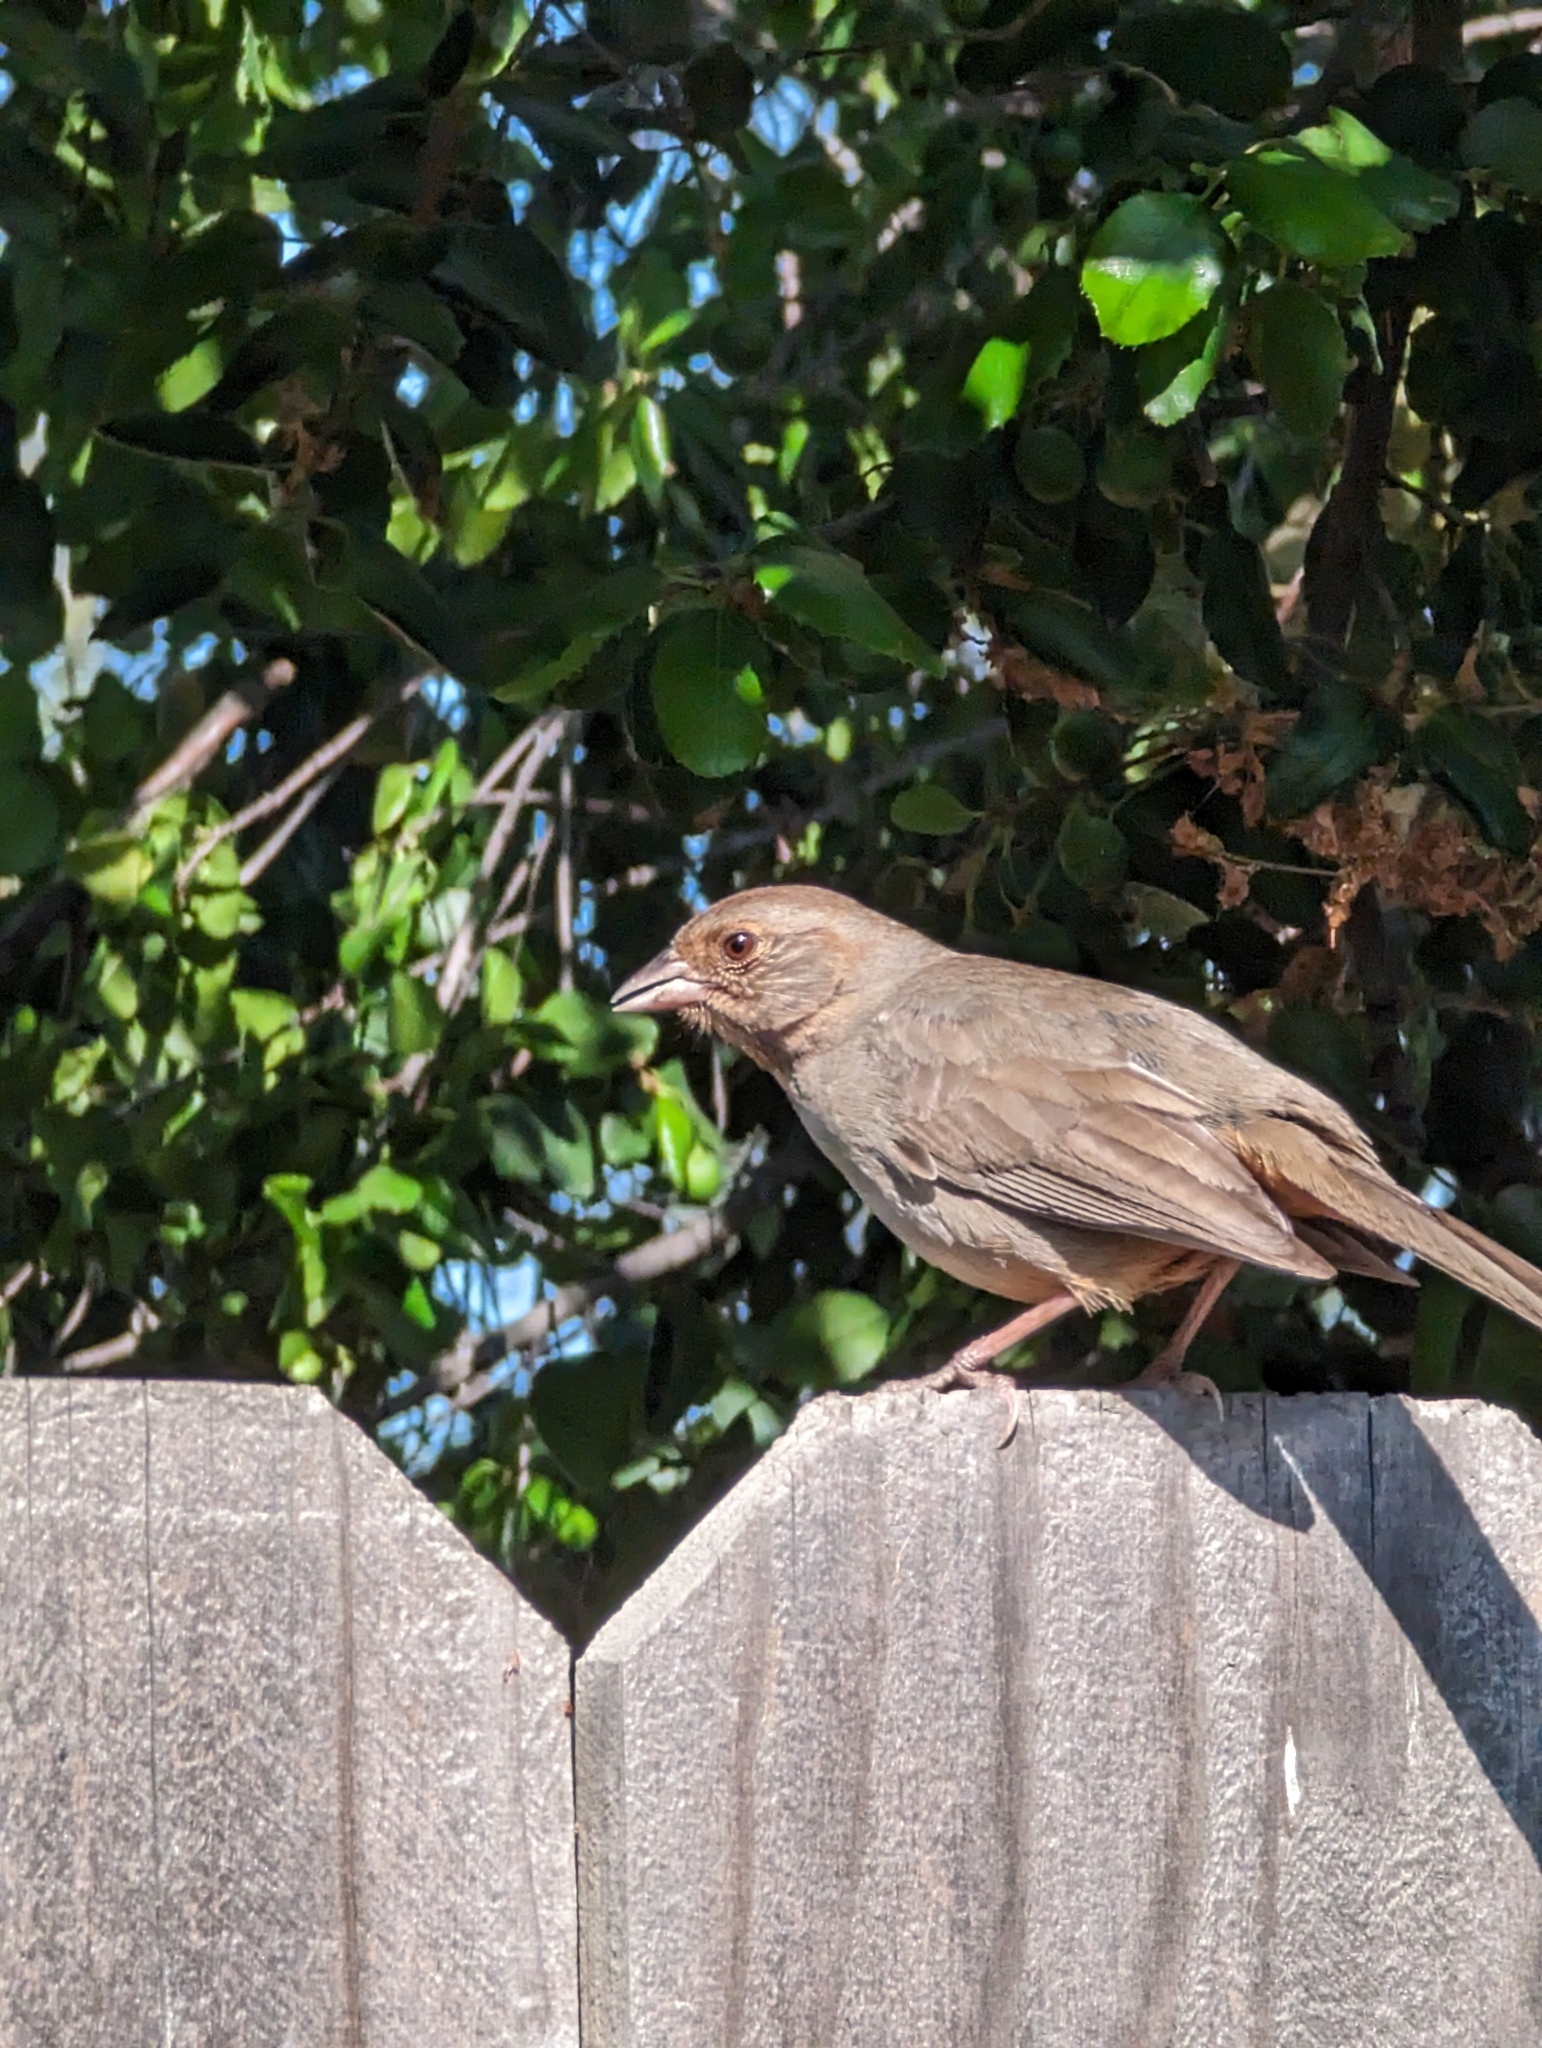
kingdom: Animalia
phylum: Chordata
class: Aves
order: Passeriformes
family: Passerellidae
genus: Melozone
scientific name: Melozone crissalis
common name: California towhee
